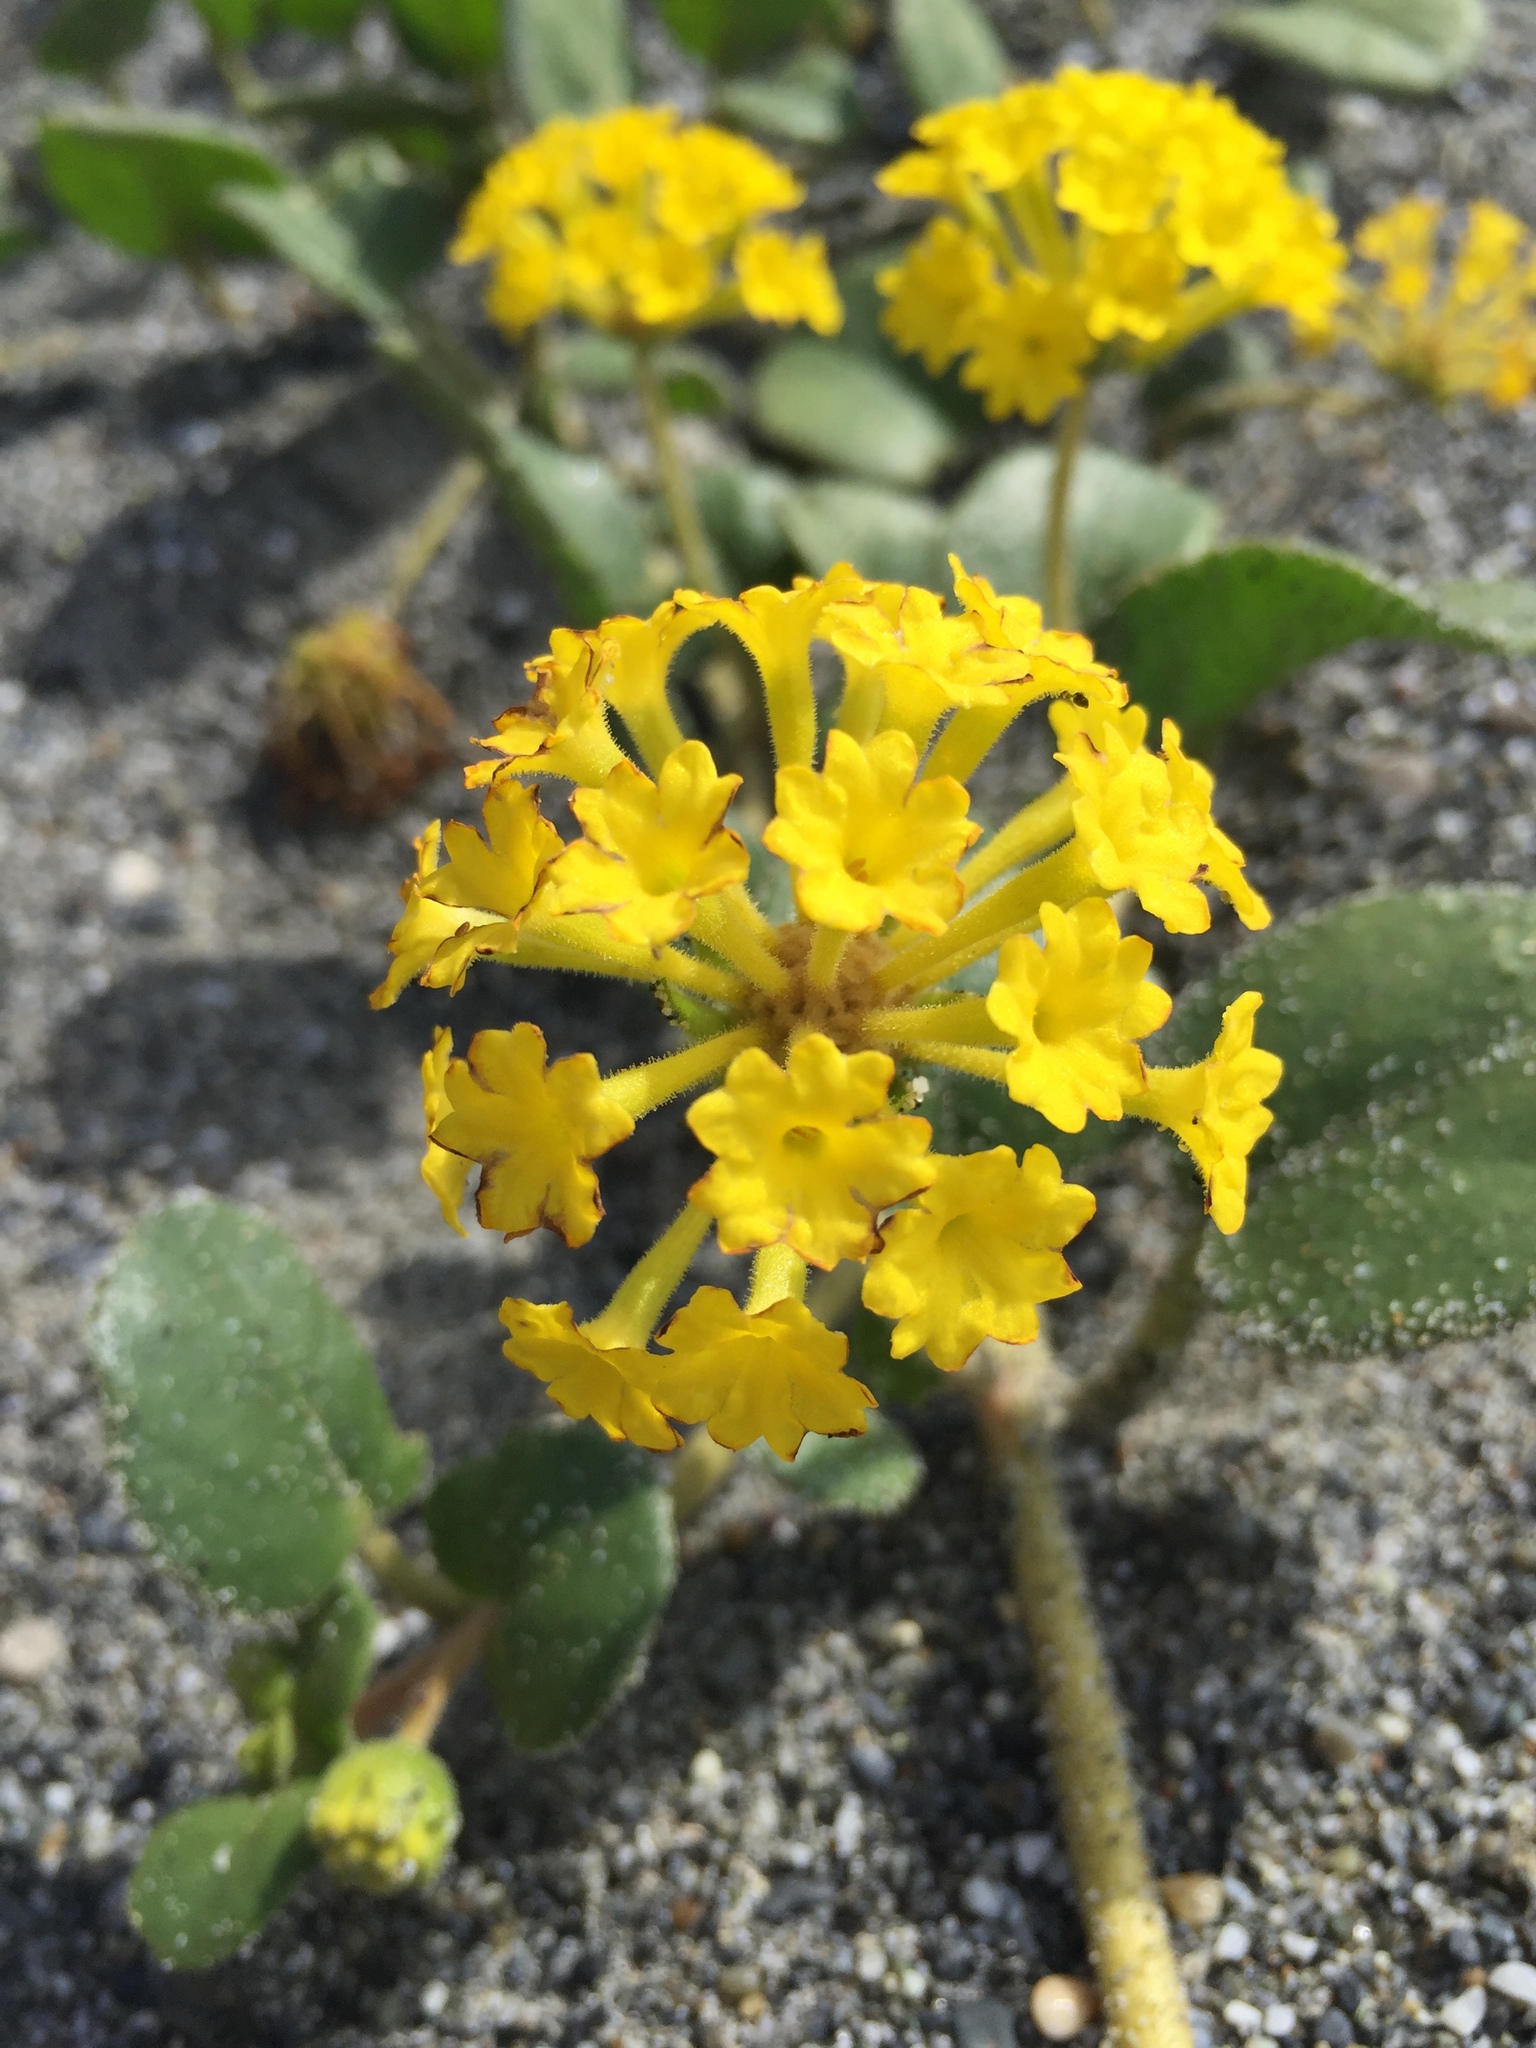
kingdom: Plantae
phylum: Tracheophyta
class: Magnoliopsida
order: Caryophyllales
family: Nyctaginaceae
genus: Abronia
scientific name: Abronia latifolia
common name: Yellow sand-verbena
